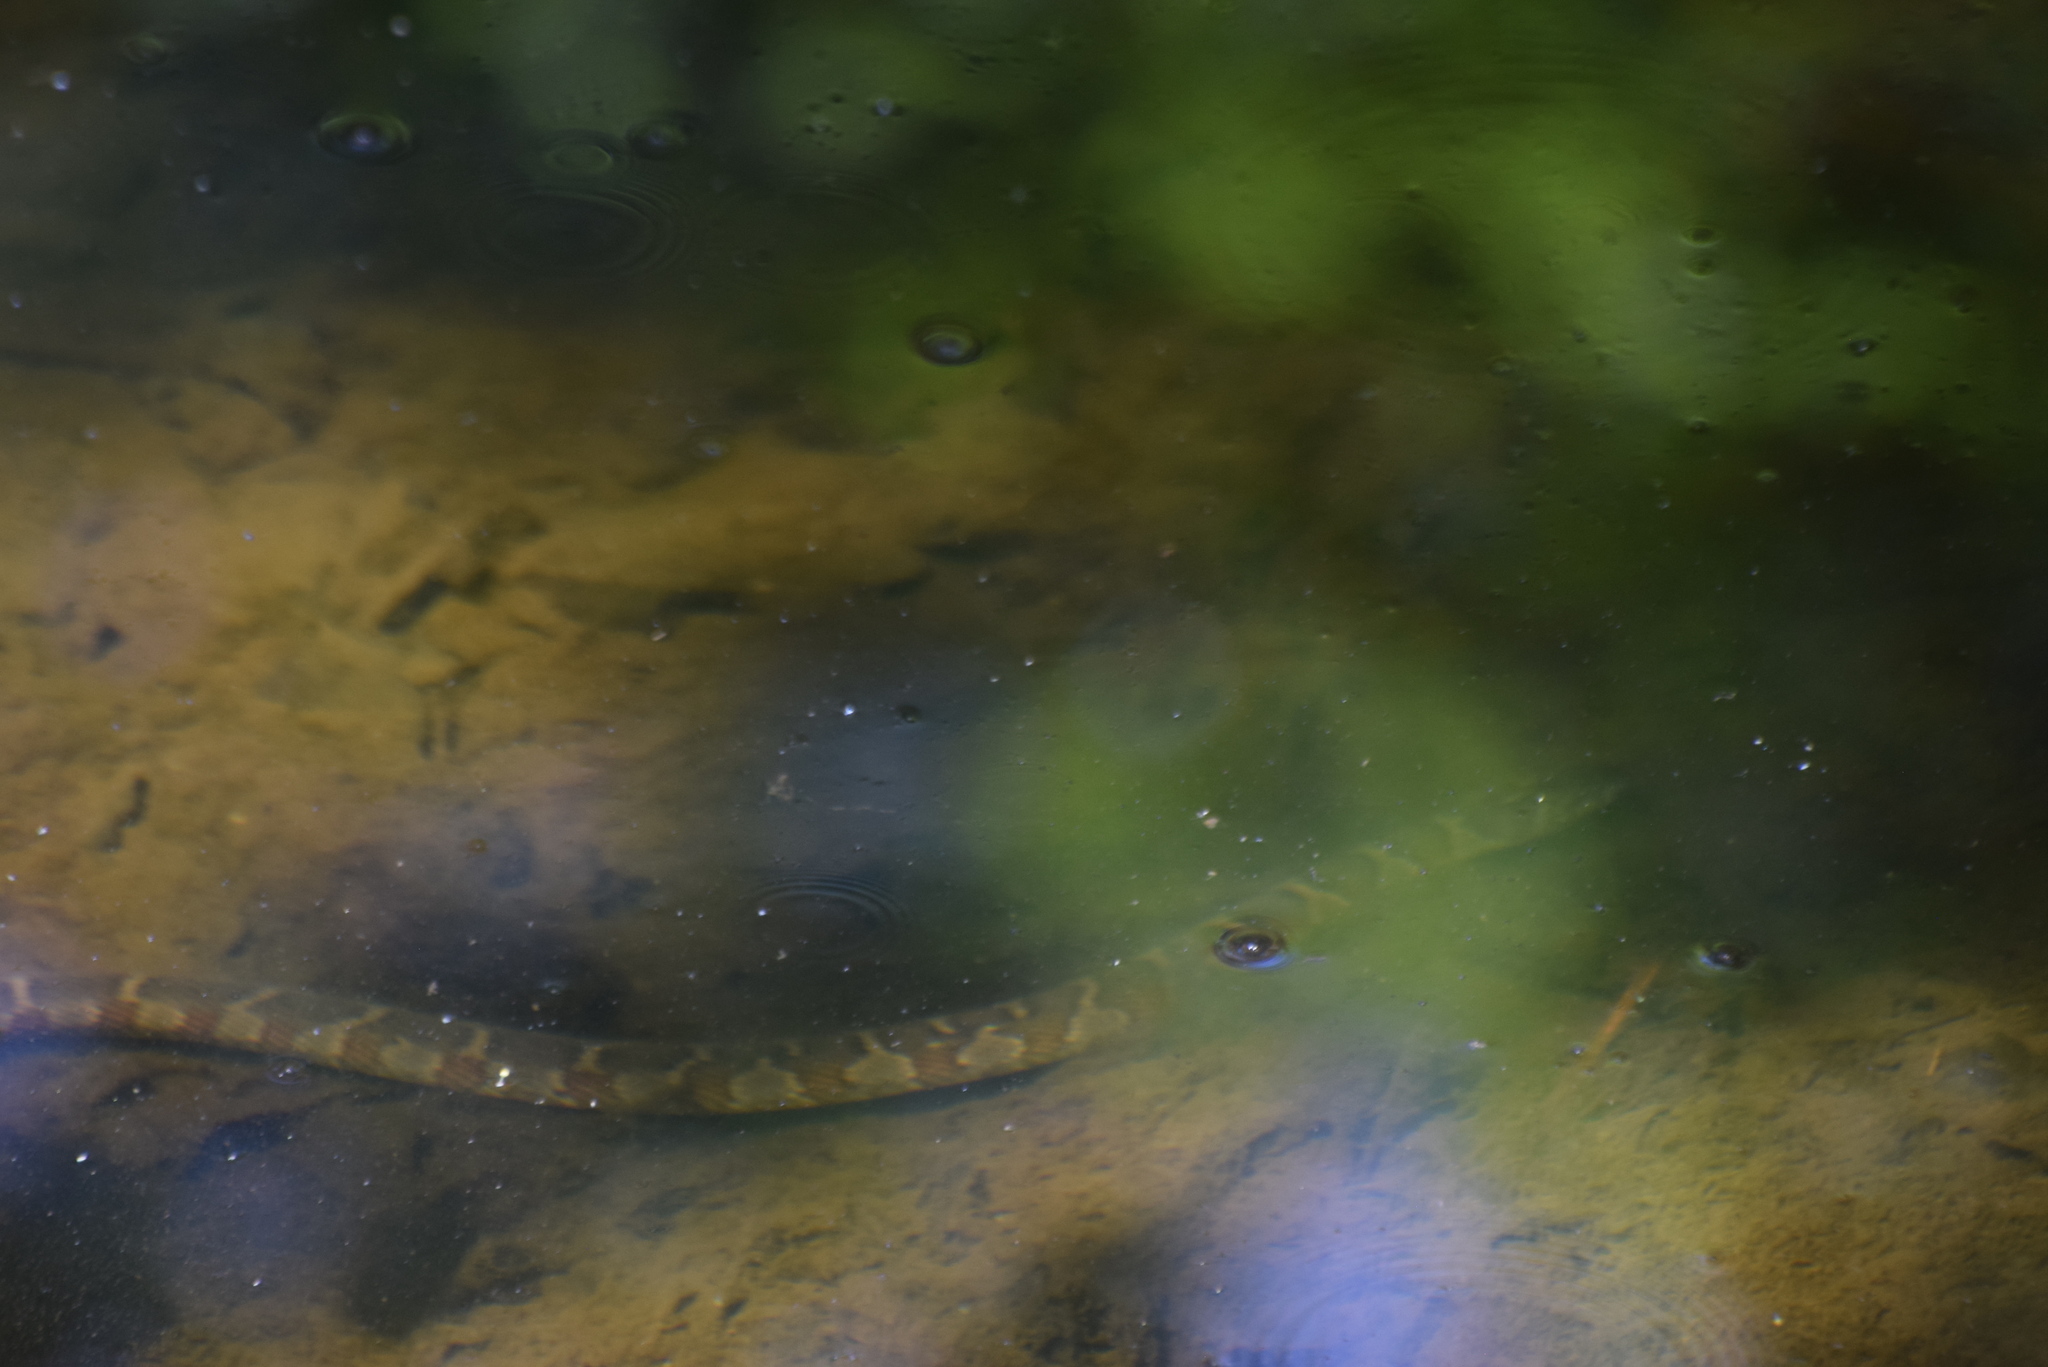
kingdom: Animalia
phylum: Chordata
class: Squamata
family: Colubridae
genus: Nerodia
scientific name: Nerodia sipedon
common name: Northern water snake
